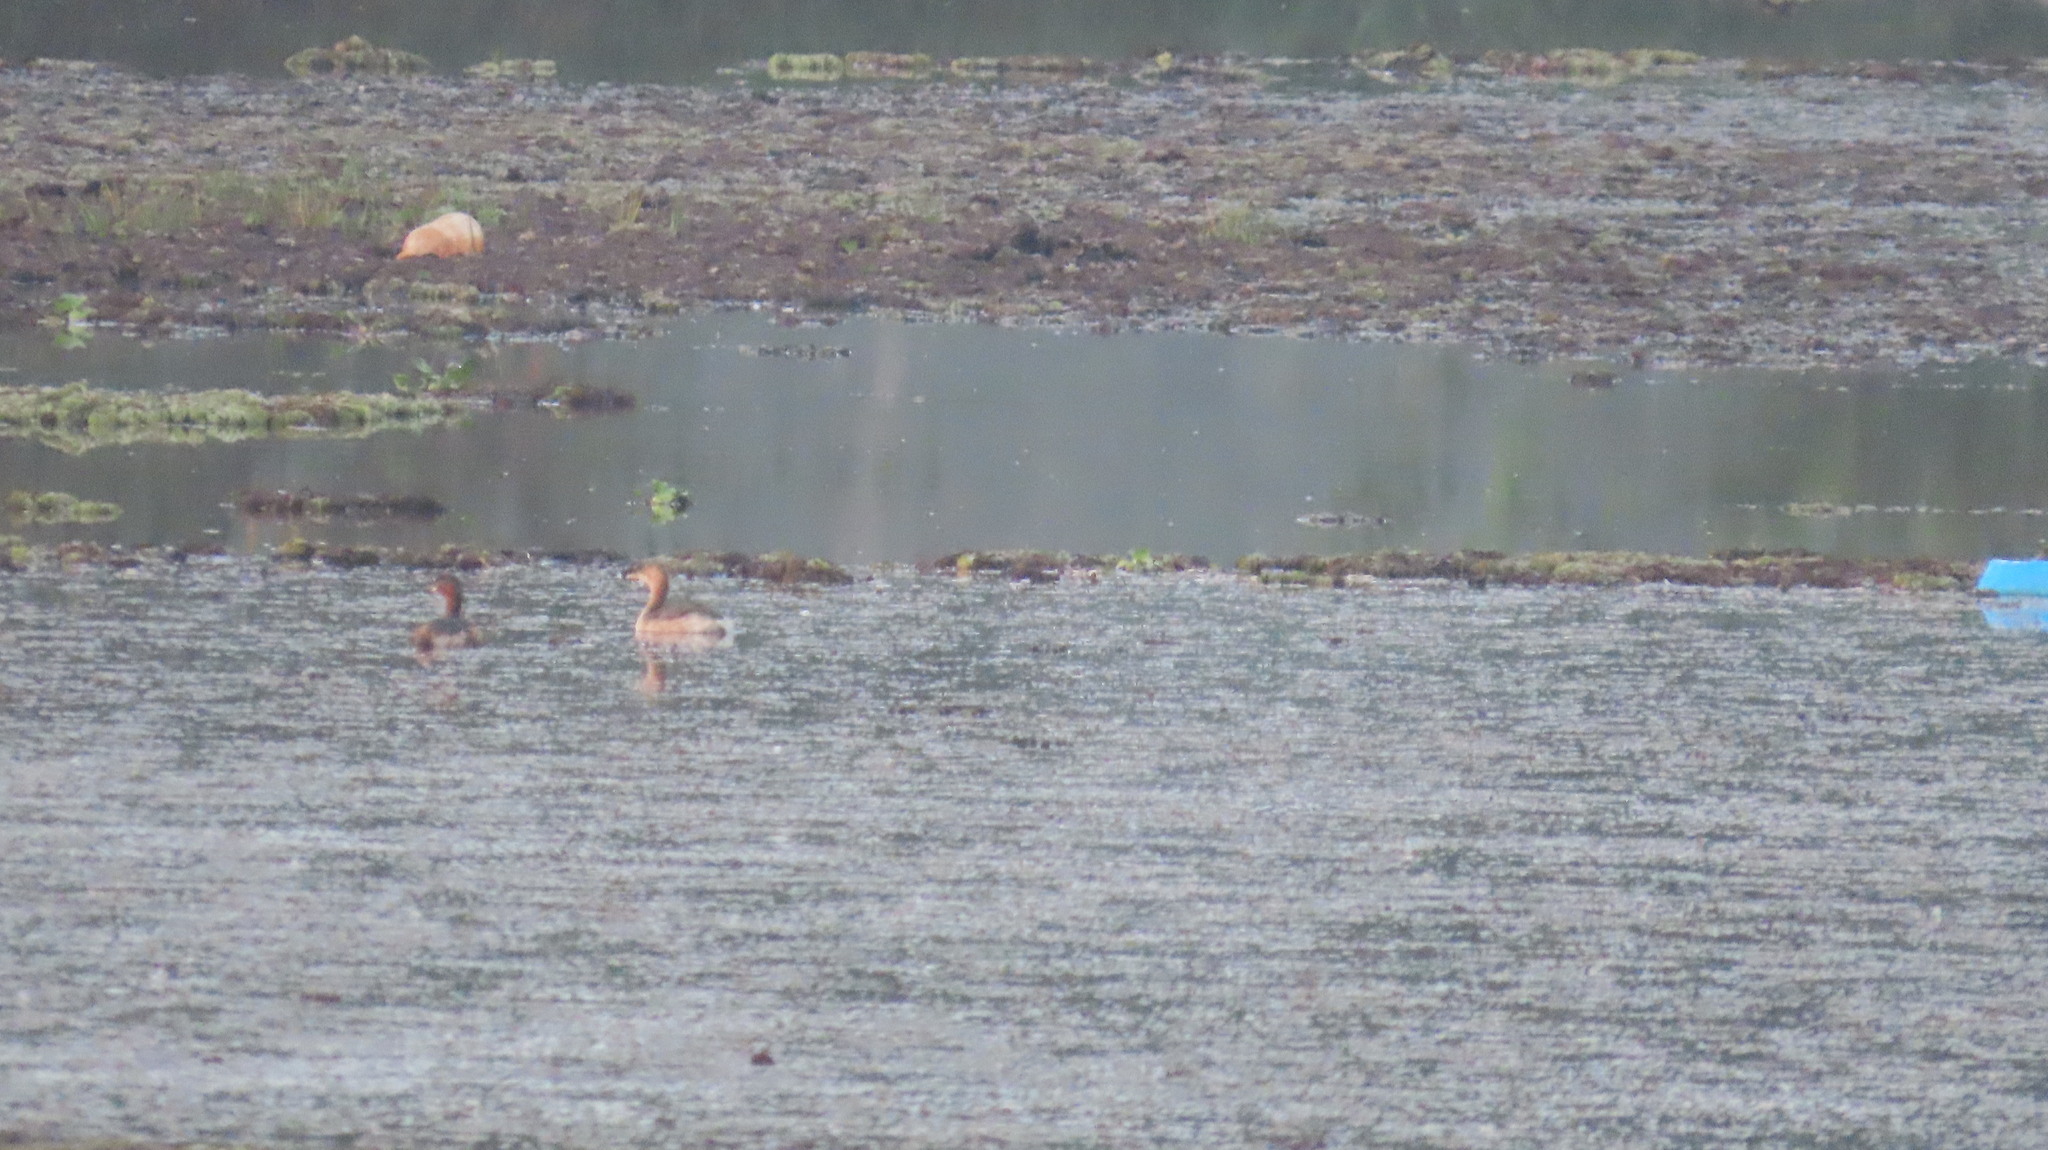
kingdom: Animalia
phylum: Chordata
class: Aves
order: Podicipediformes
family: Podicipedidae
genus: Tachybaptus
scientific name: Tachybaptus ruficollis
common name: Little grebe
